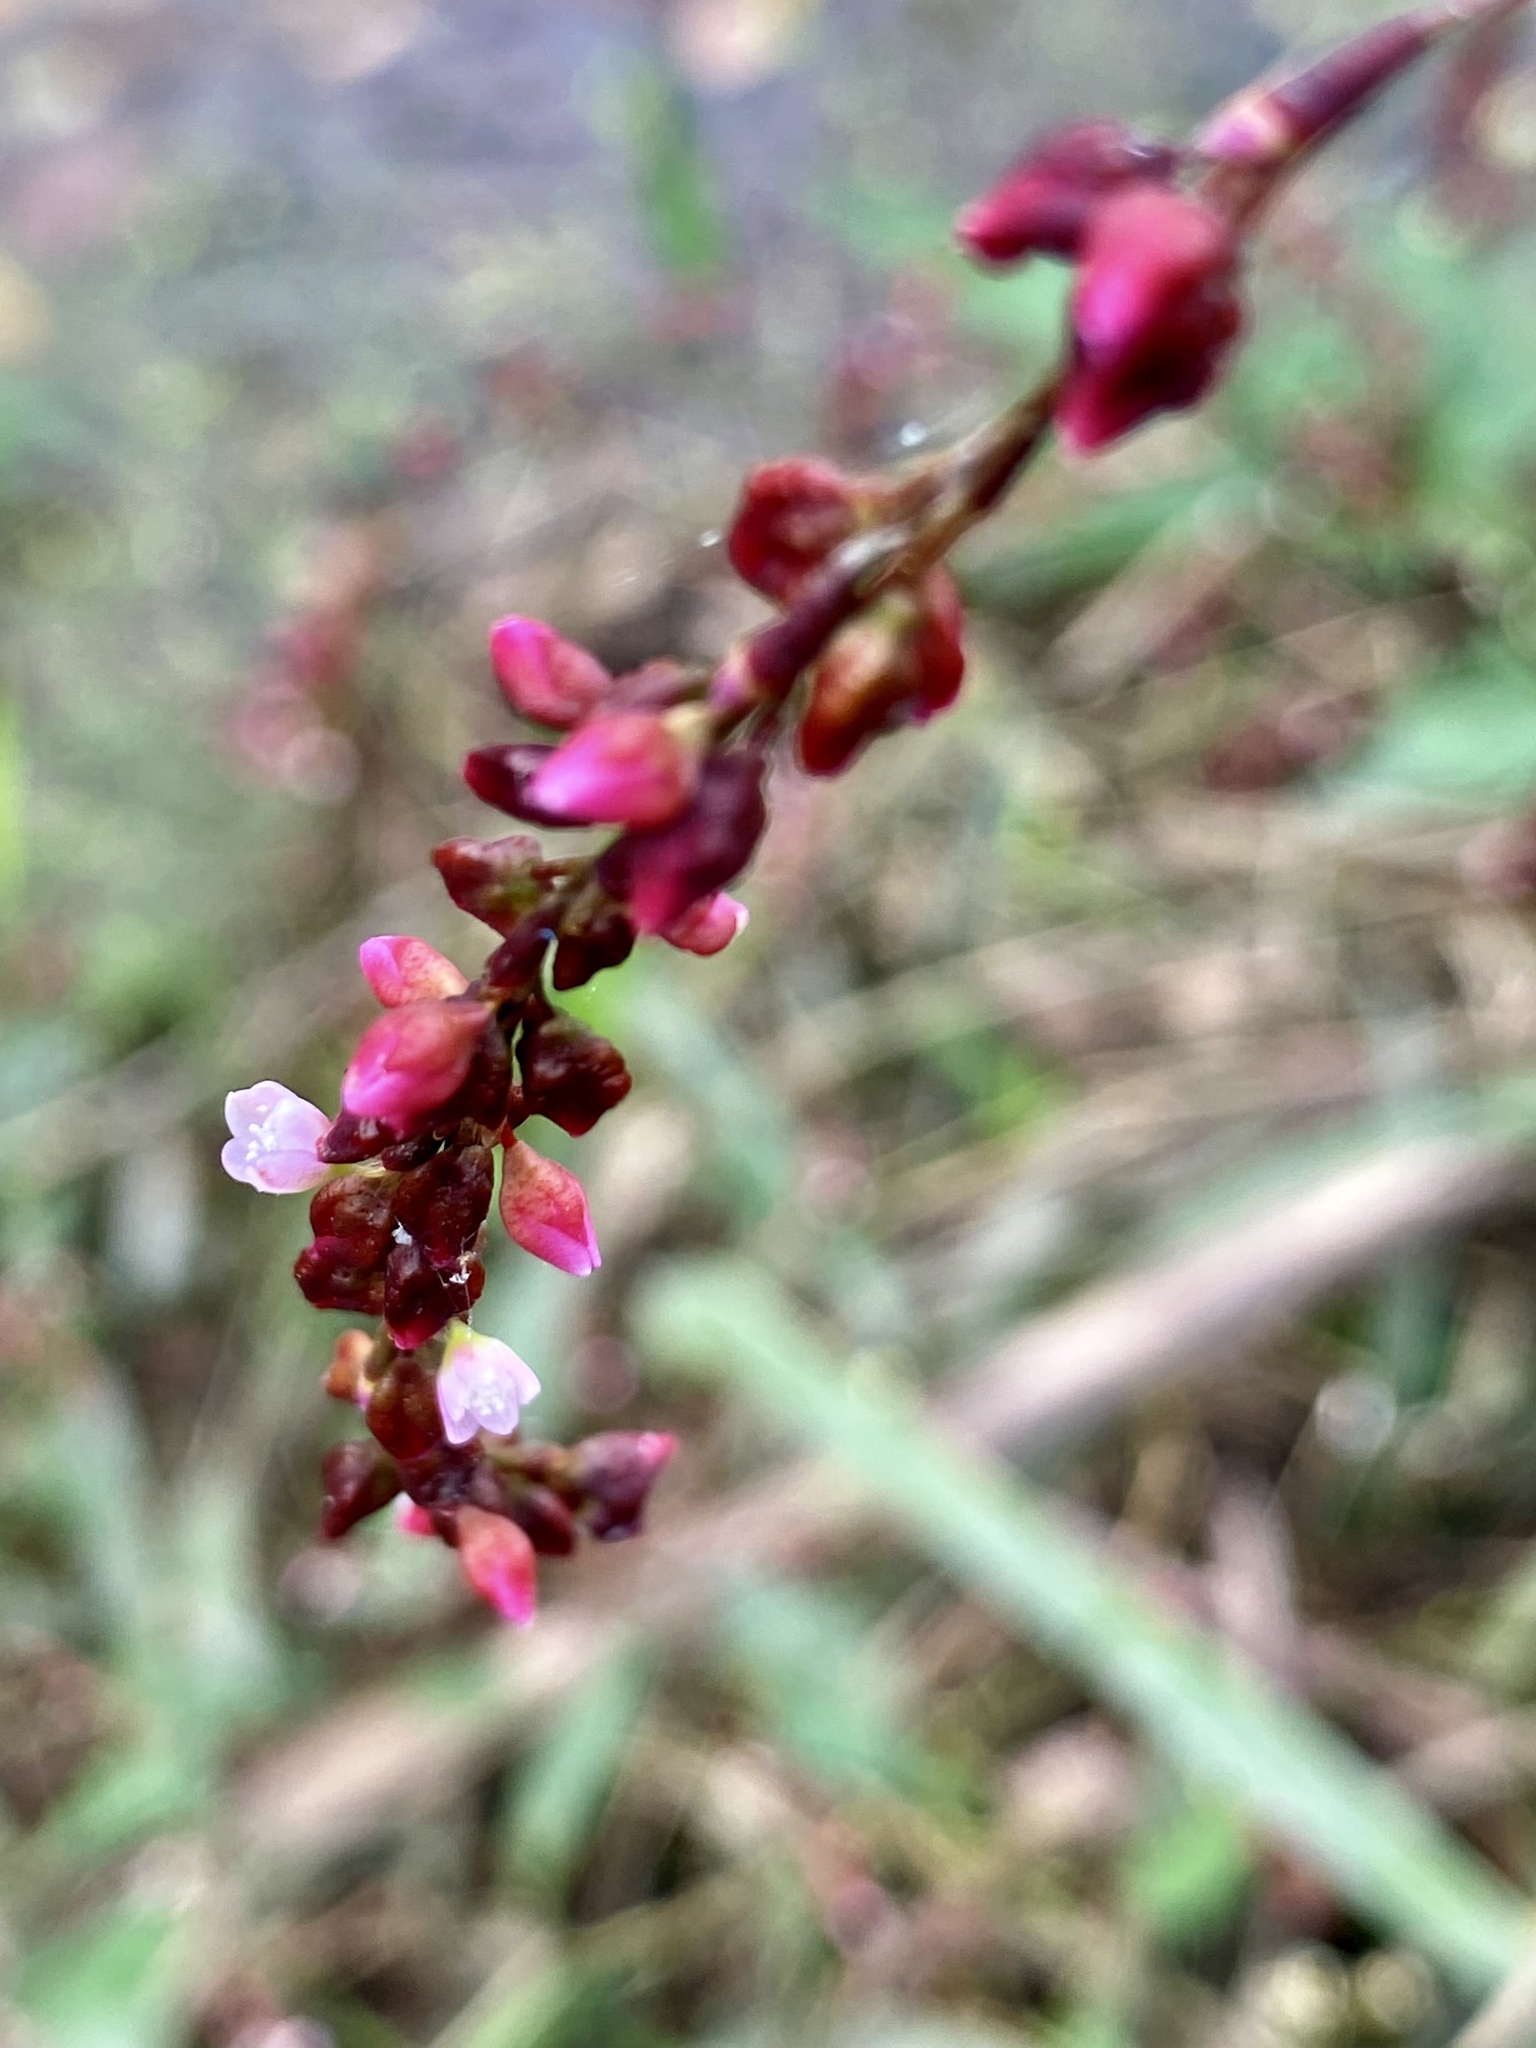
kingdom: Plantae
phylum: Tracheophyta
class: Magnoliopsida
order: Caryophyllales
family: Polygonaceae
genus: Persicaria
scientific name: Persicaria hydropiper
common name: Water-pepper
